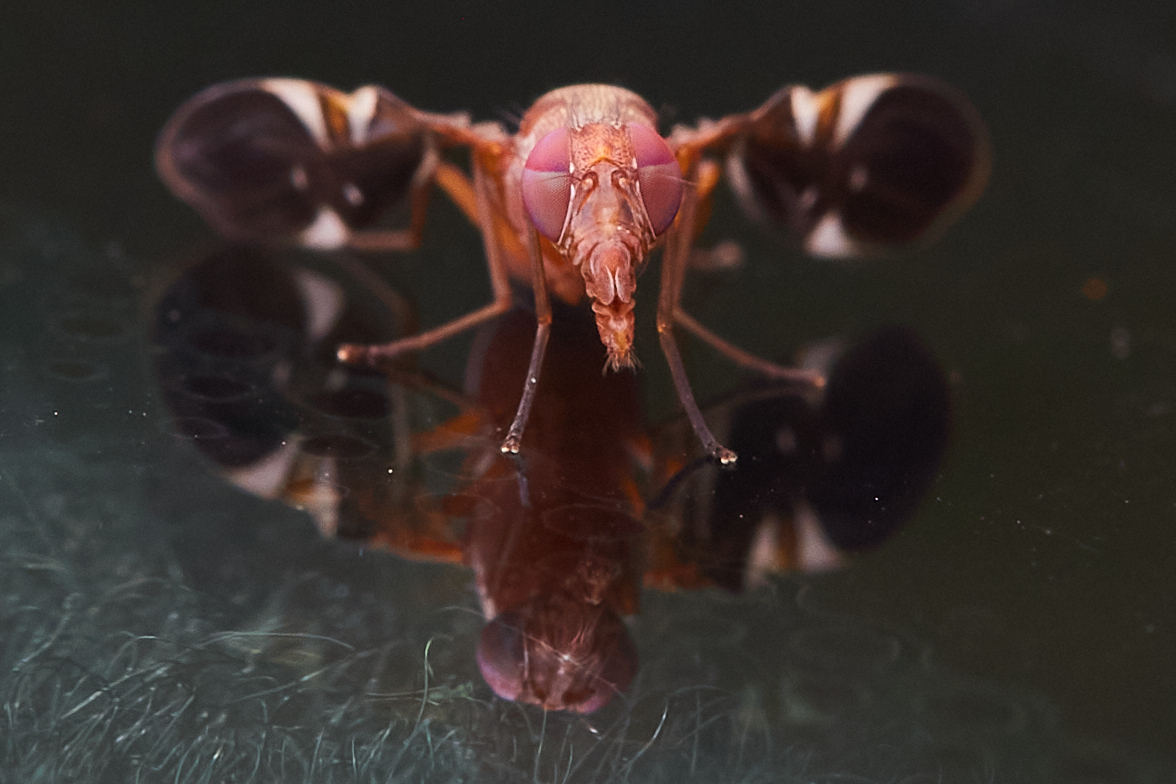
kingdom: Animalia
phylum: Arthropoda
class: Insecta
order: Diptera
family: Ulidiidae
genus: Delphinia
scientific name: Delphinia picta
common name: Common picture-winged fly
